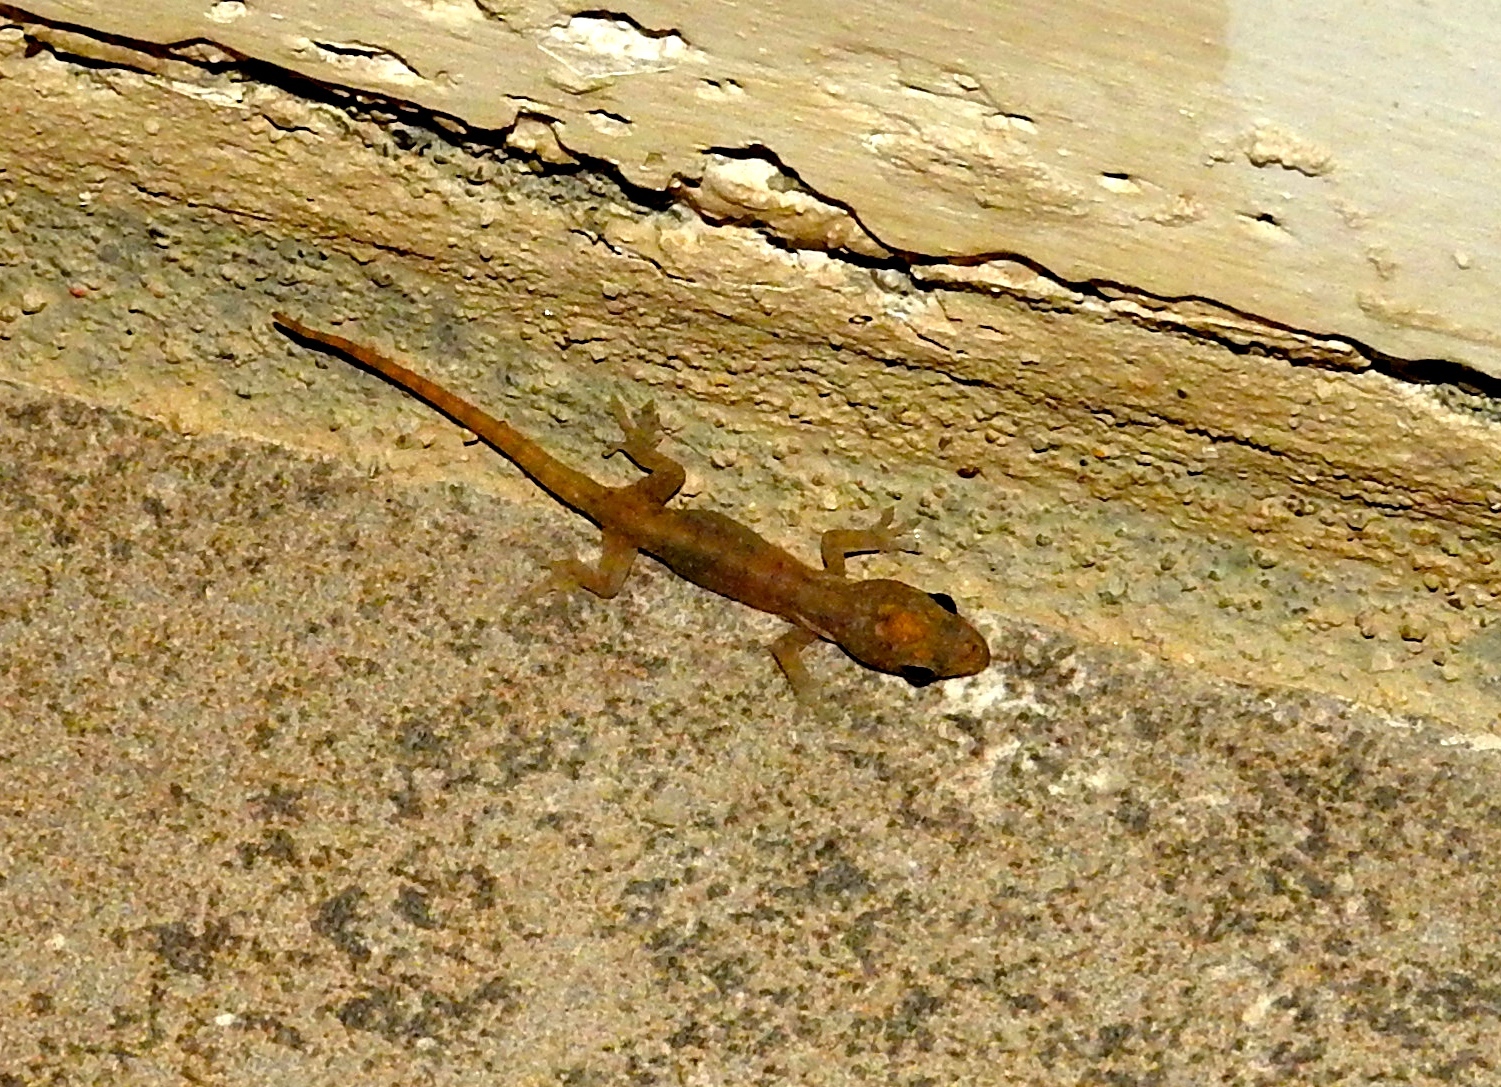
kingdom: Animalia
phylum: Chordata
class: Squamata
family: Gekkonidae
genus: Hemidactylus
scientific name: Hemidactylus frenatus
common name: Common house gecko
